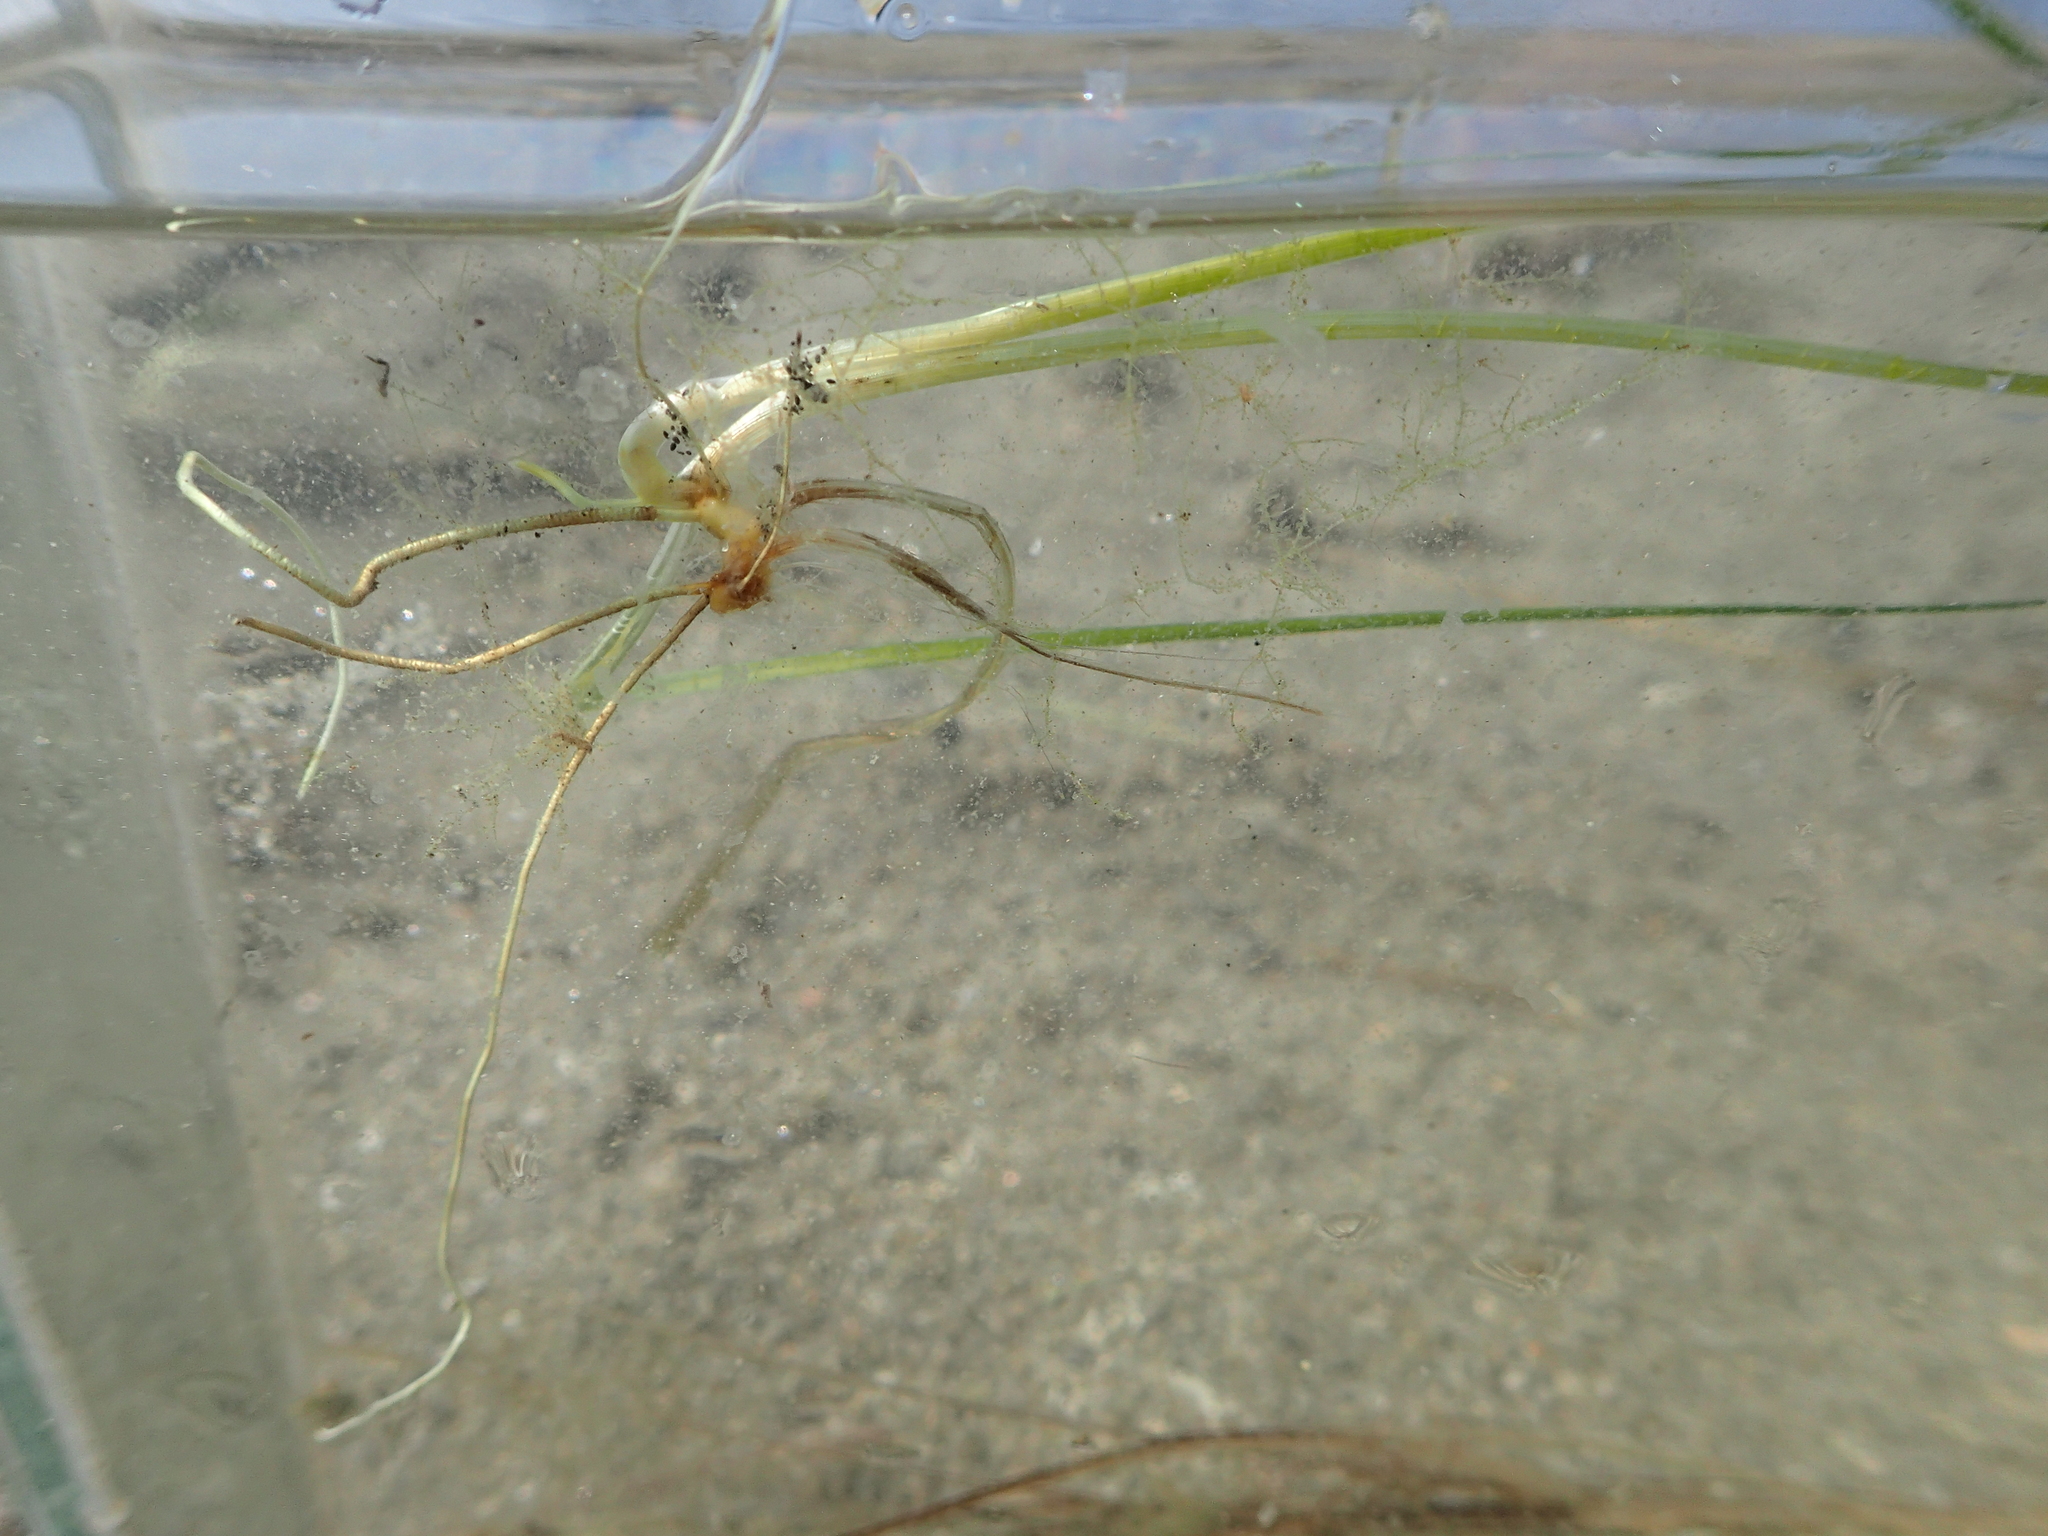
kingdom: Plantae
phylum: Tracheophyta
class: Liliopsida
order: Alismatales
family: Zosteraceae
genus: Zostera
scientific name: Zostera noltii
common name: Dwarf eelgrass
